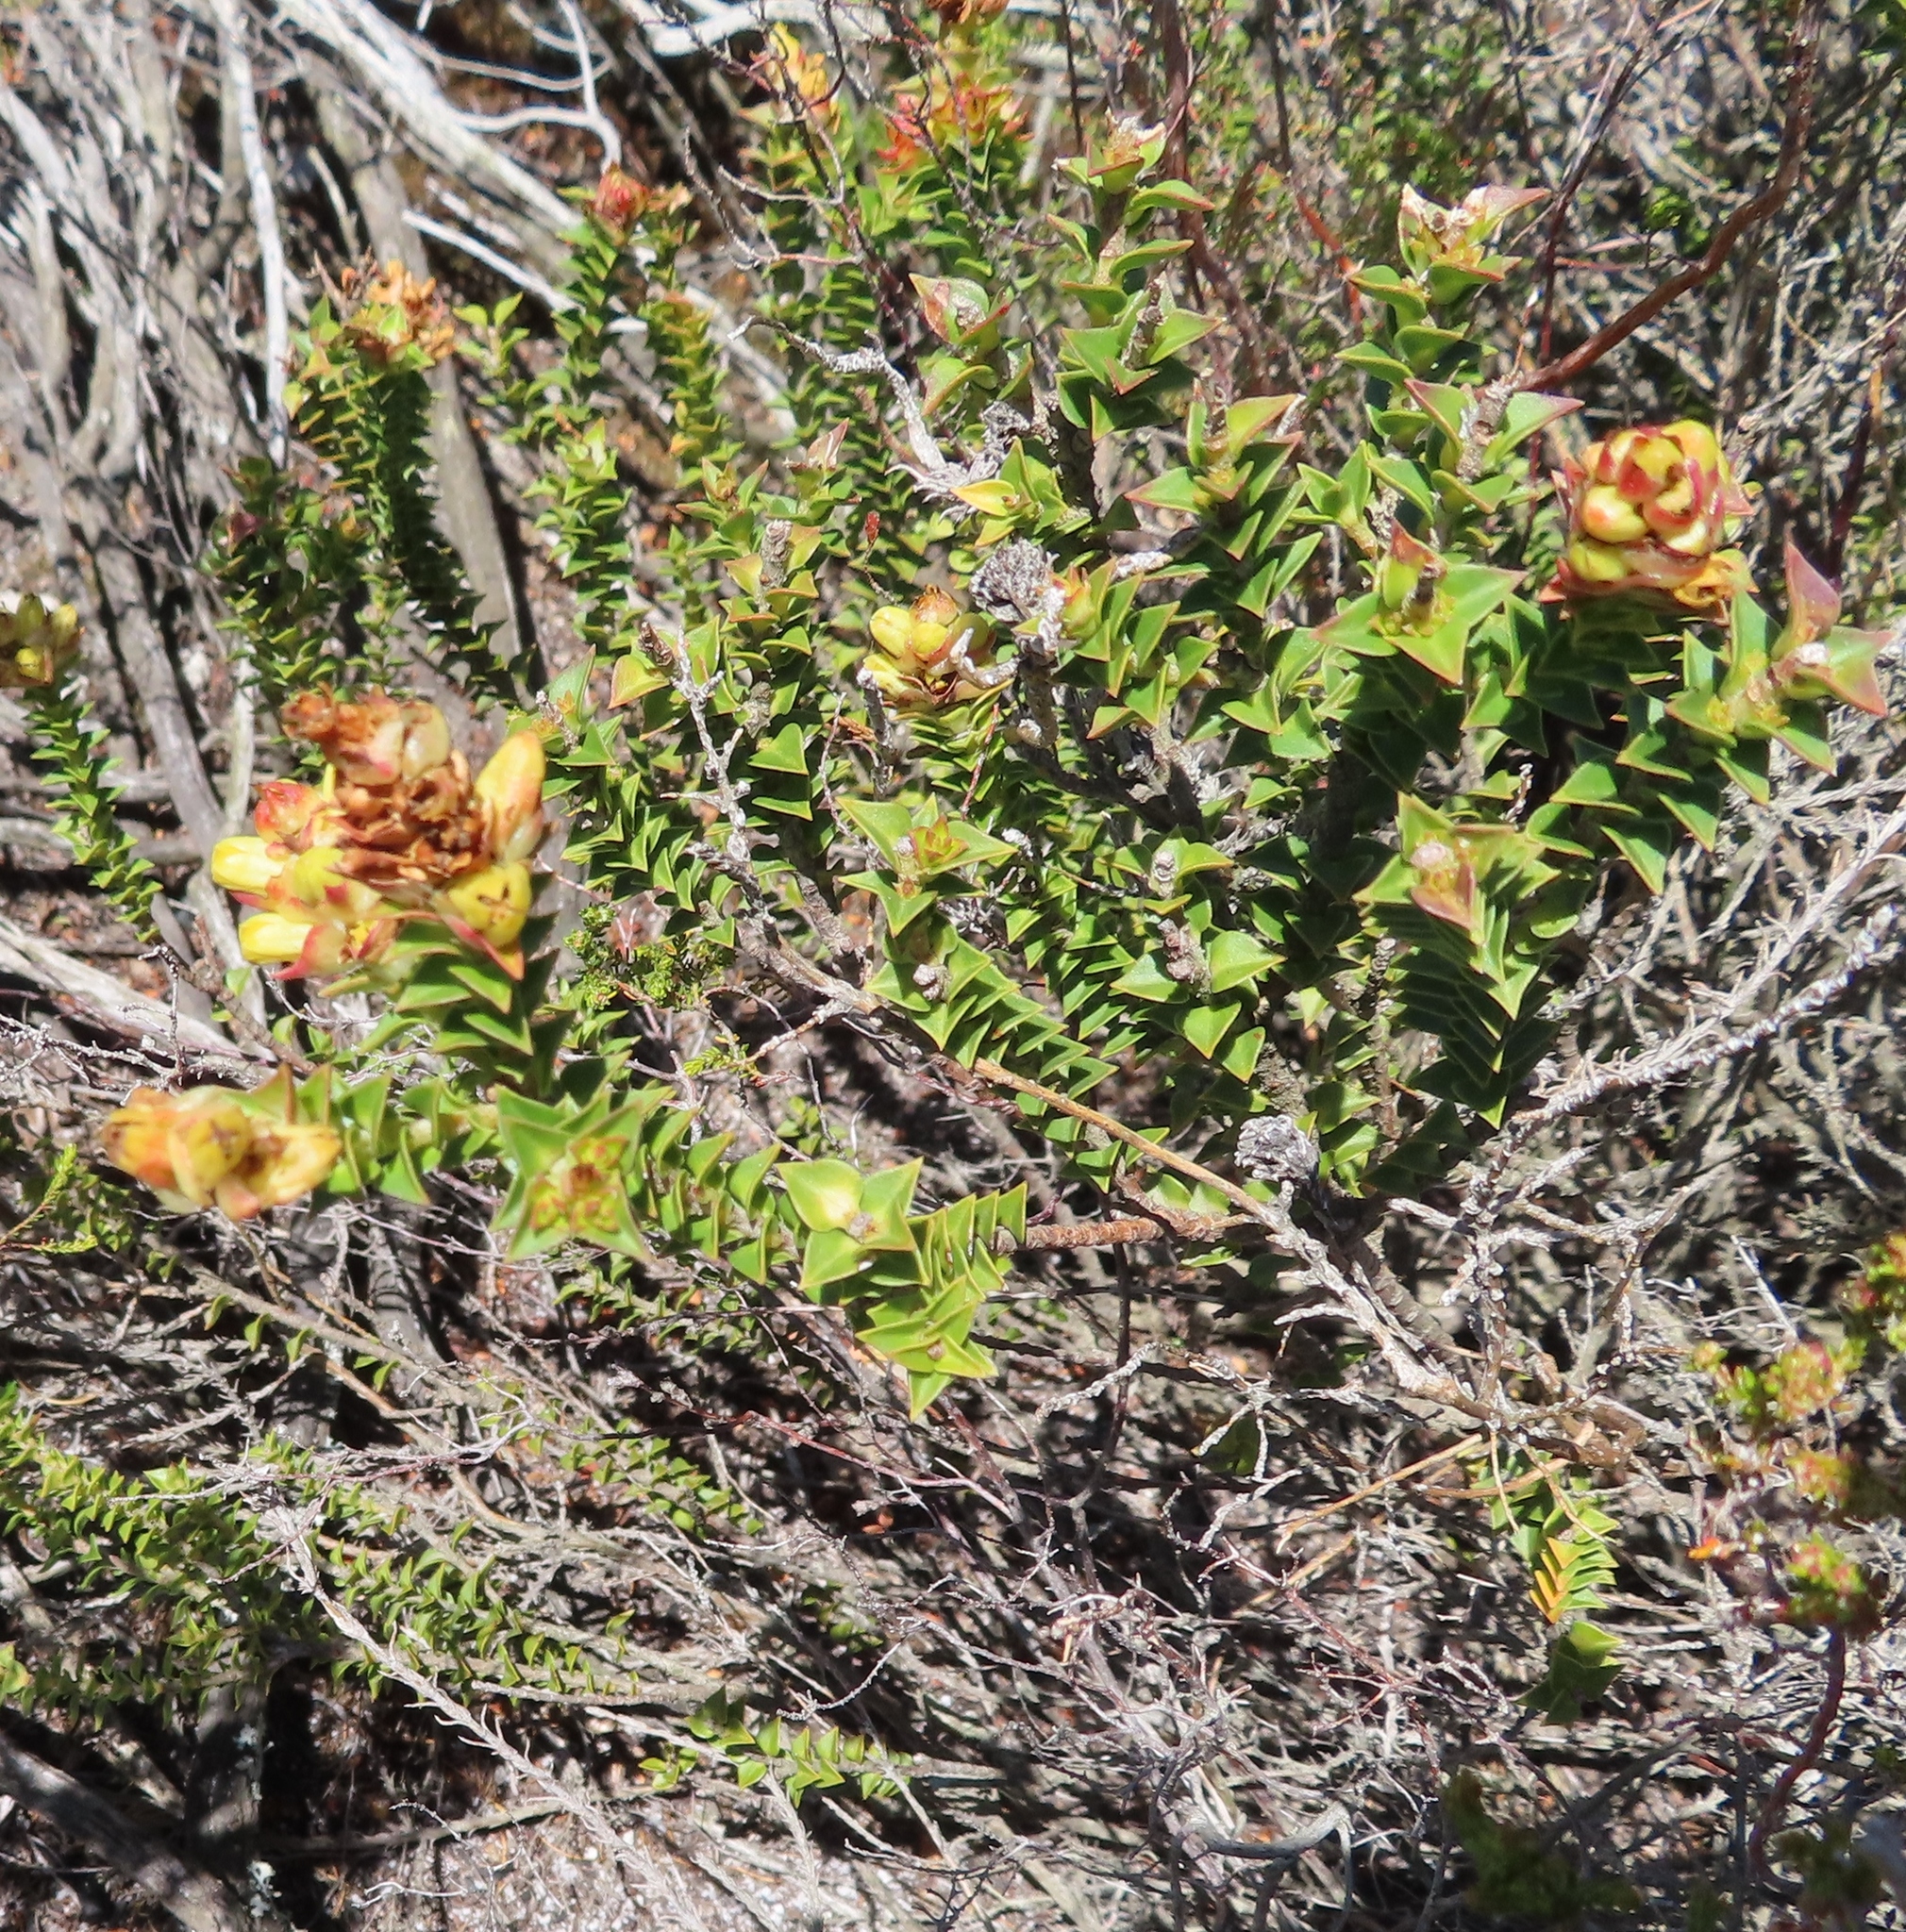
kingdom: Plantae
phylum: Tracheophyta
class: Magnoliopsida
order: Myrtales
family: Penaeaceae
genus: Penaea
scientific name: Penaea mucronata
